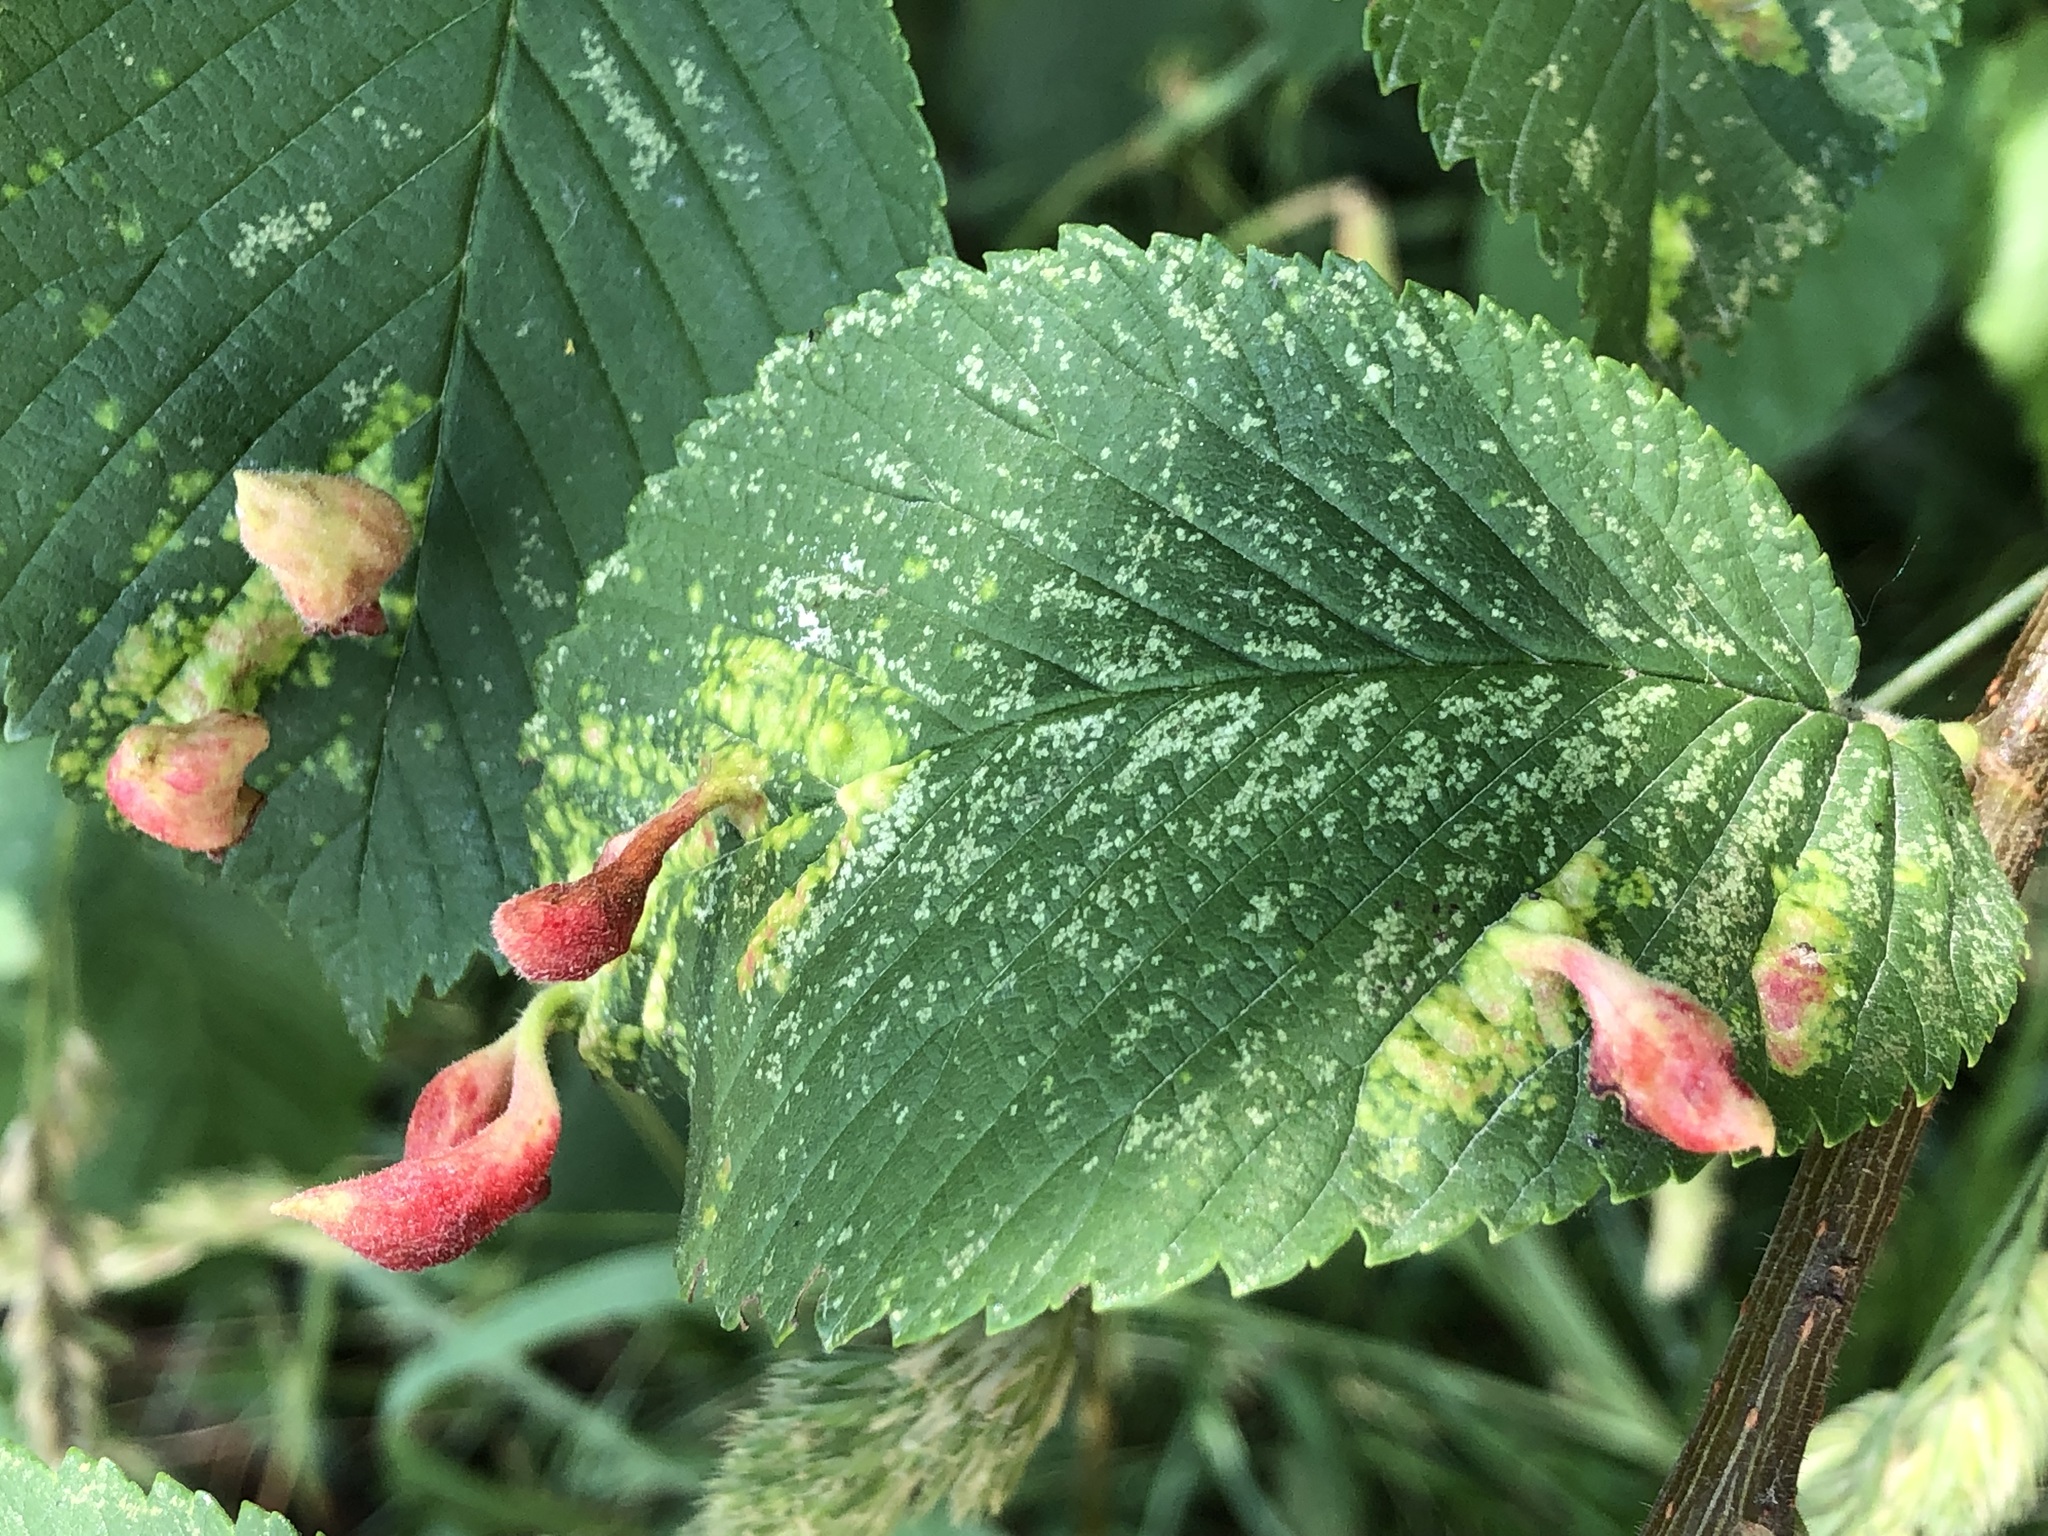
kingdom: Animalia
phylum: Arthropoda
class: Insecta
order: Hemiptera
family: Aphididae
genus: Tetraneura
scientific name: Tetraneura nigriabdominalis
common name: Aphid
